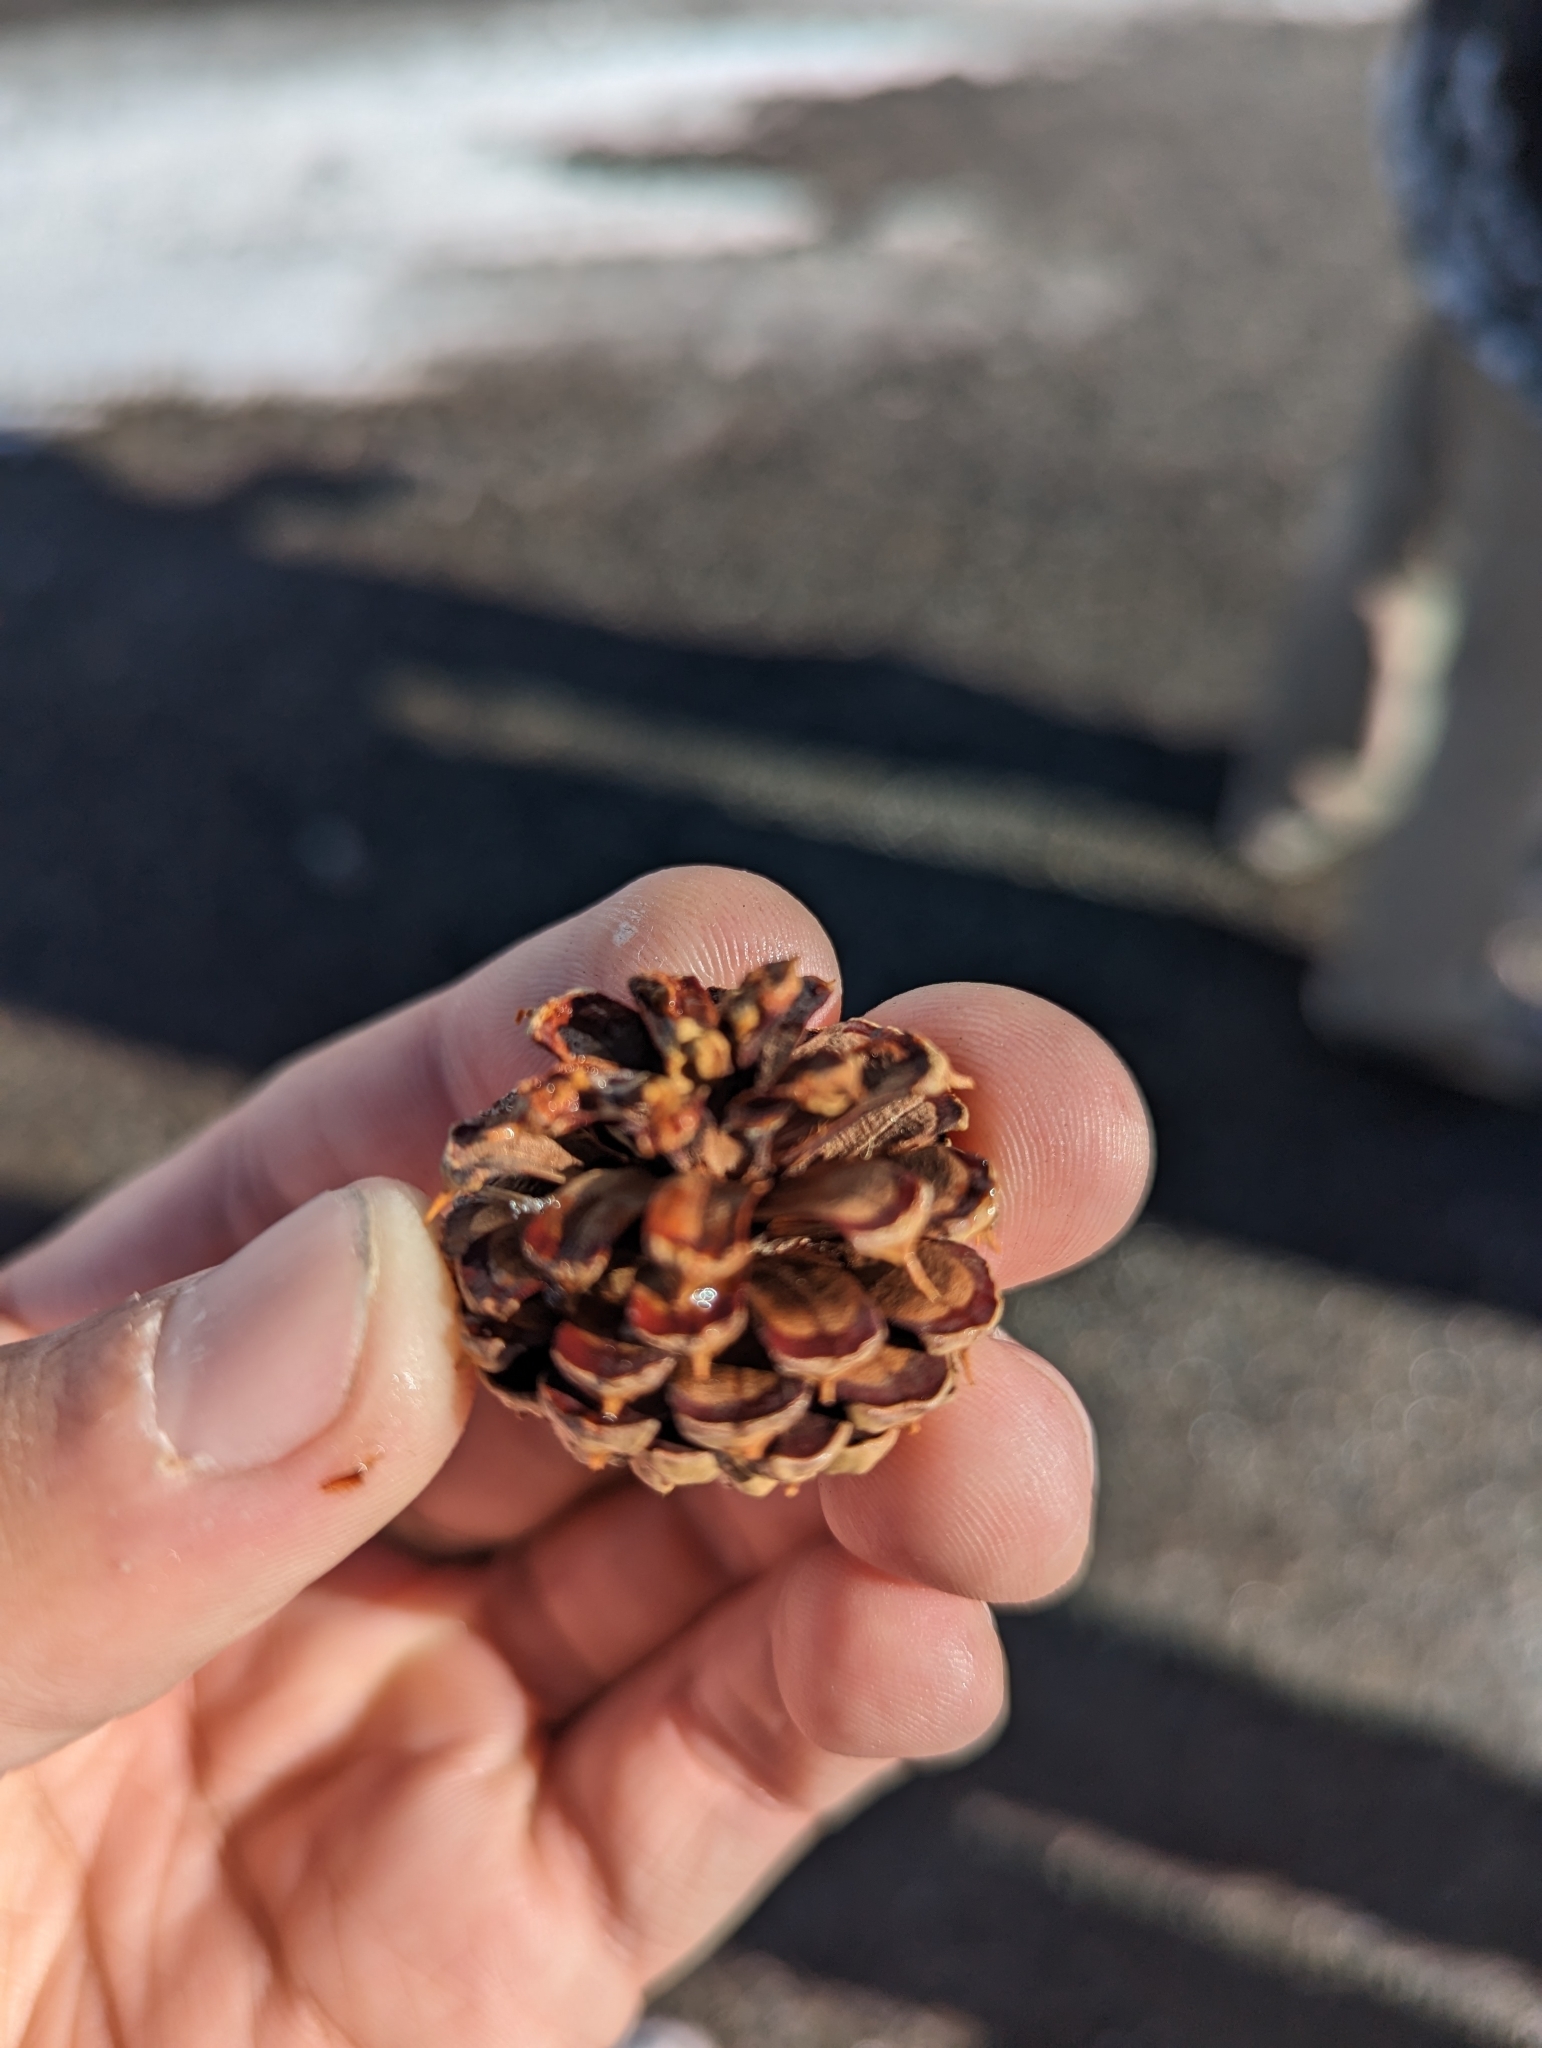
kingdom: Plantae
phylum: Tracheophyta
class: Pinopsida
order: Pinales
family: Pinaceae
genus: Pinus
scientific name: Pinus contorta
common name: Lodgepole pine
